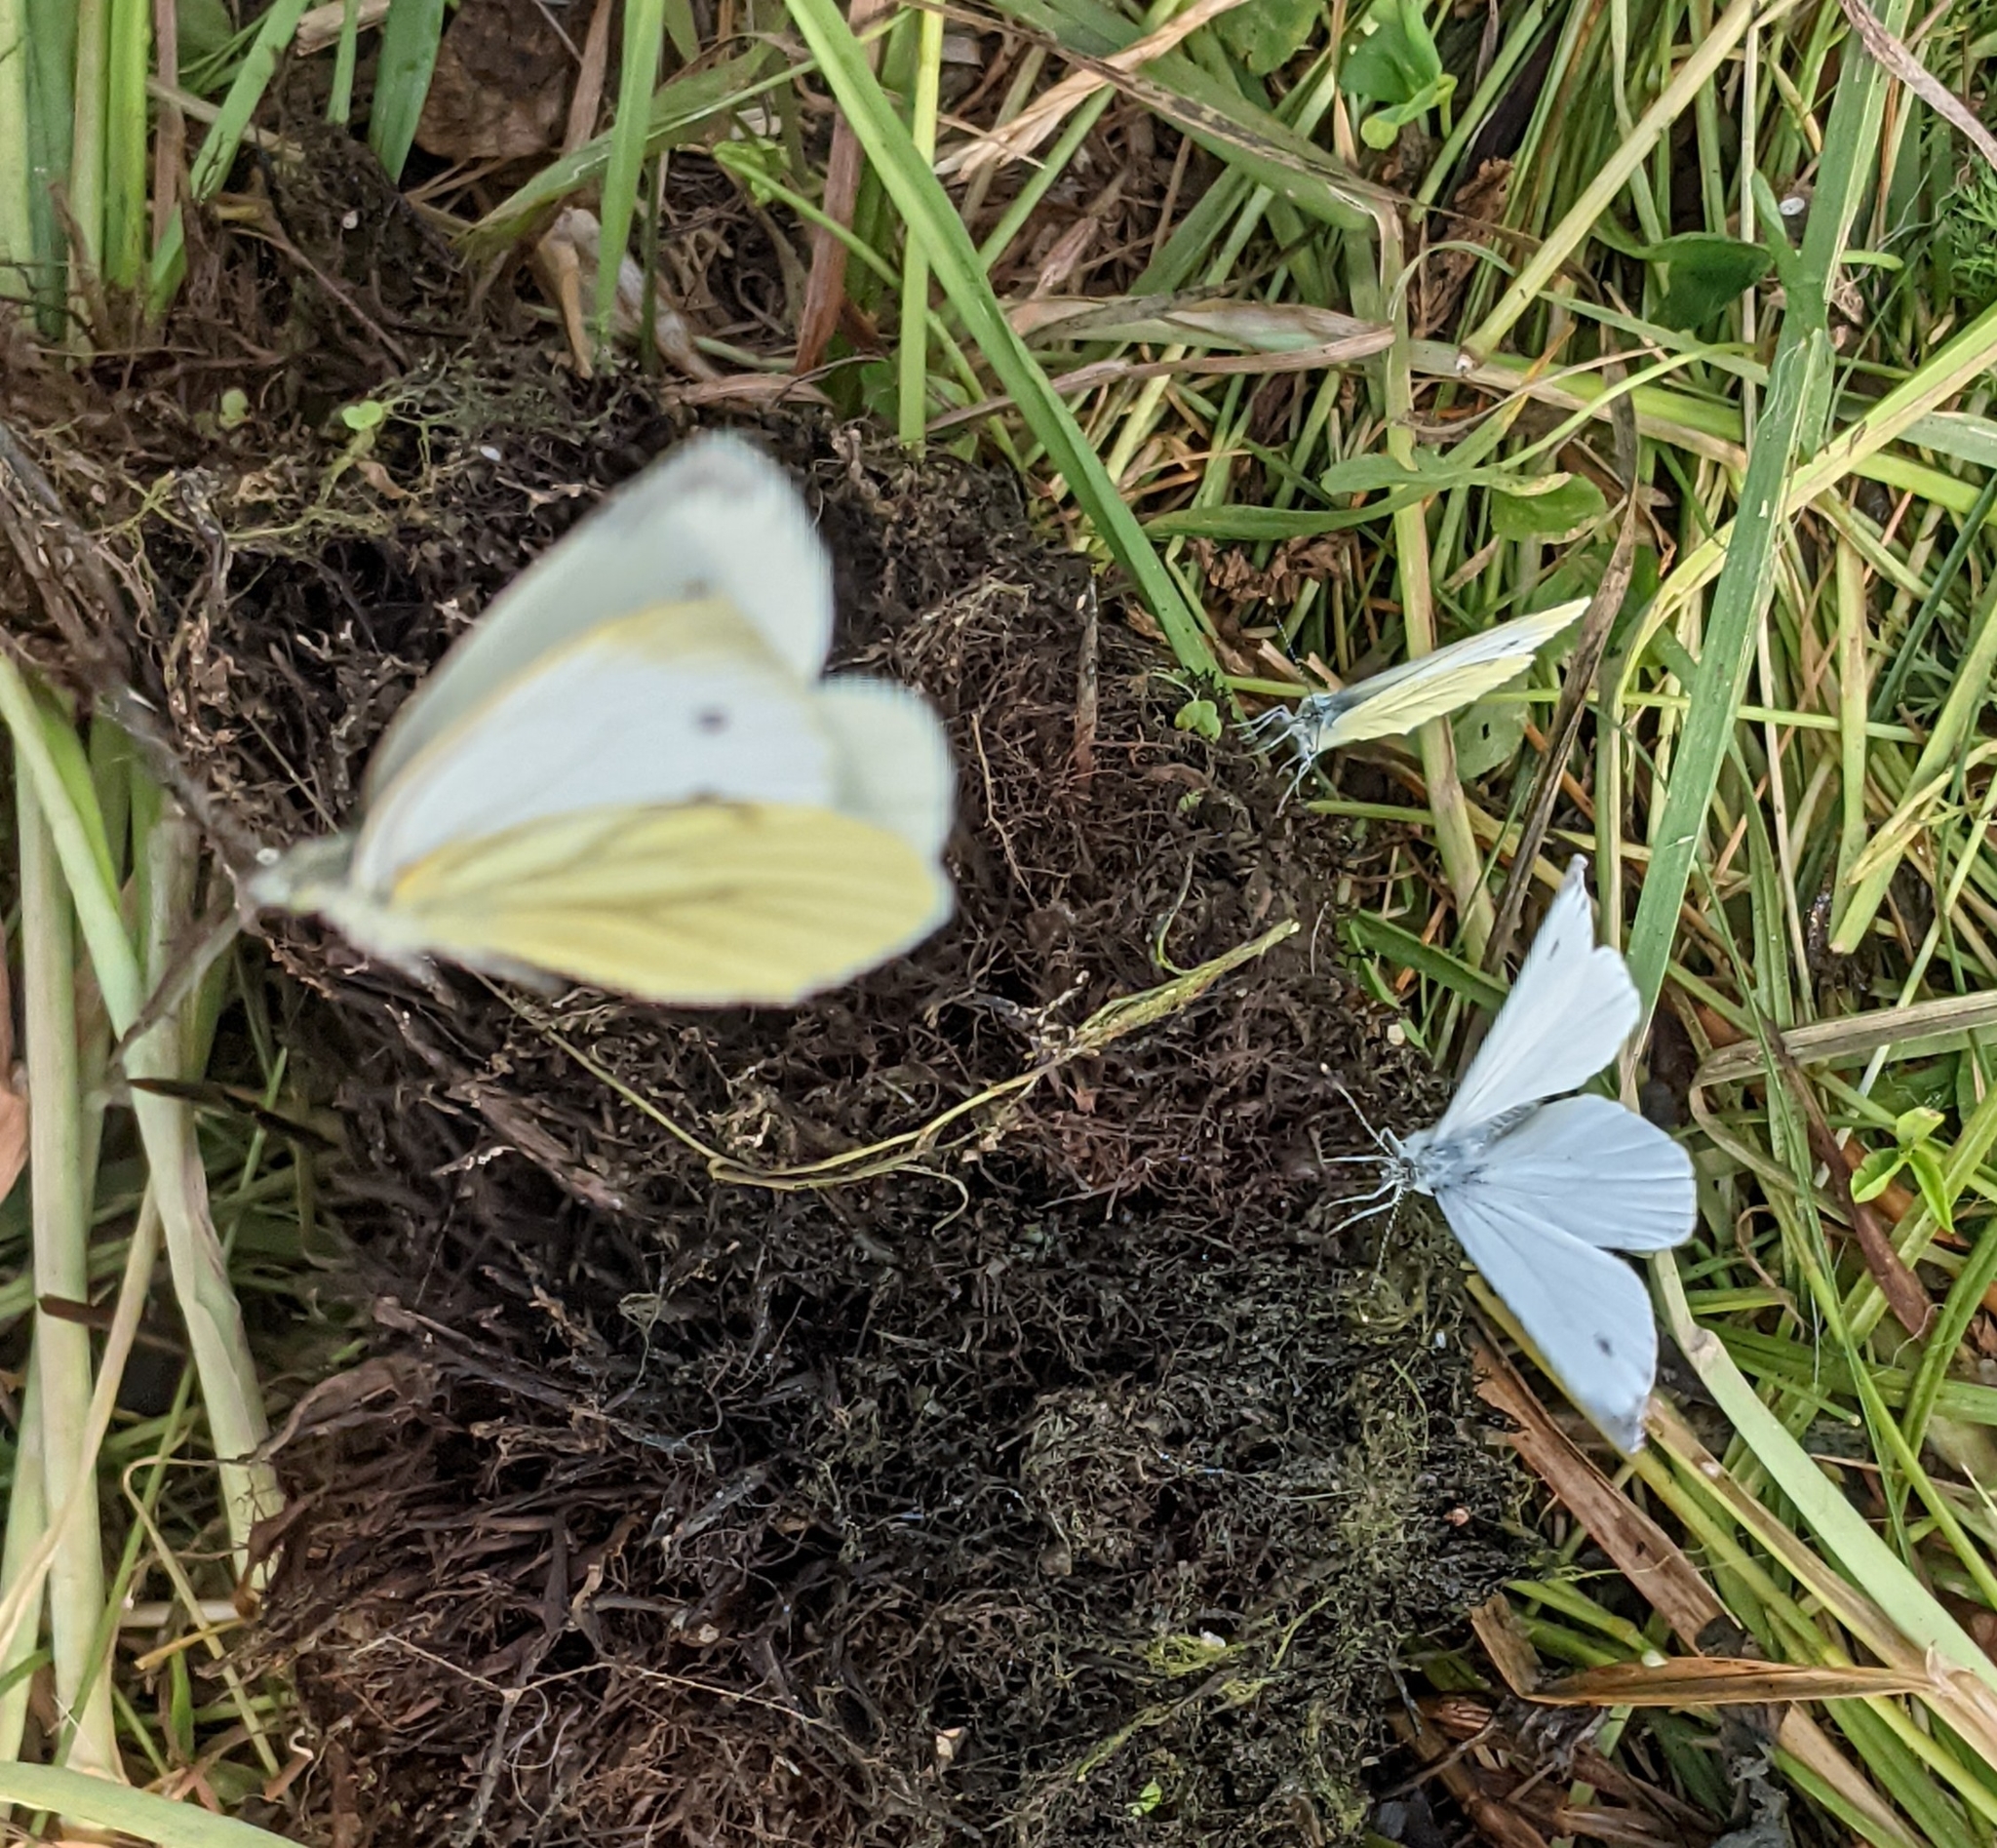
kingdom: Animalia
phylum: Arthropoda
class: Insecta
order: Lepidoptera
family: Pieridae
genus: Pieris
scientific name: Pieris napi
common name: Green-veined white
